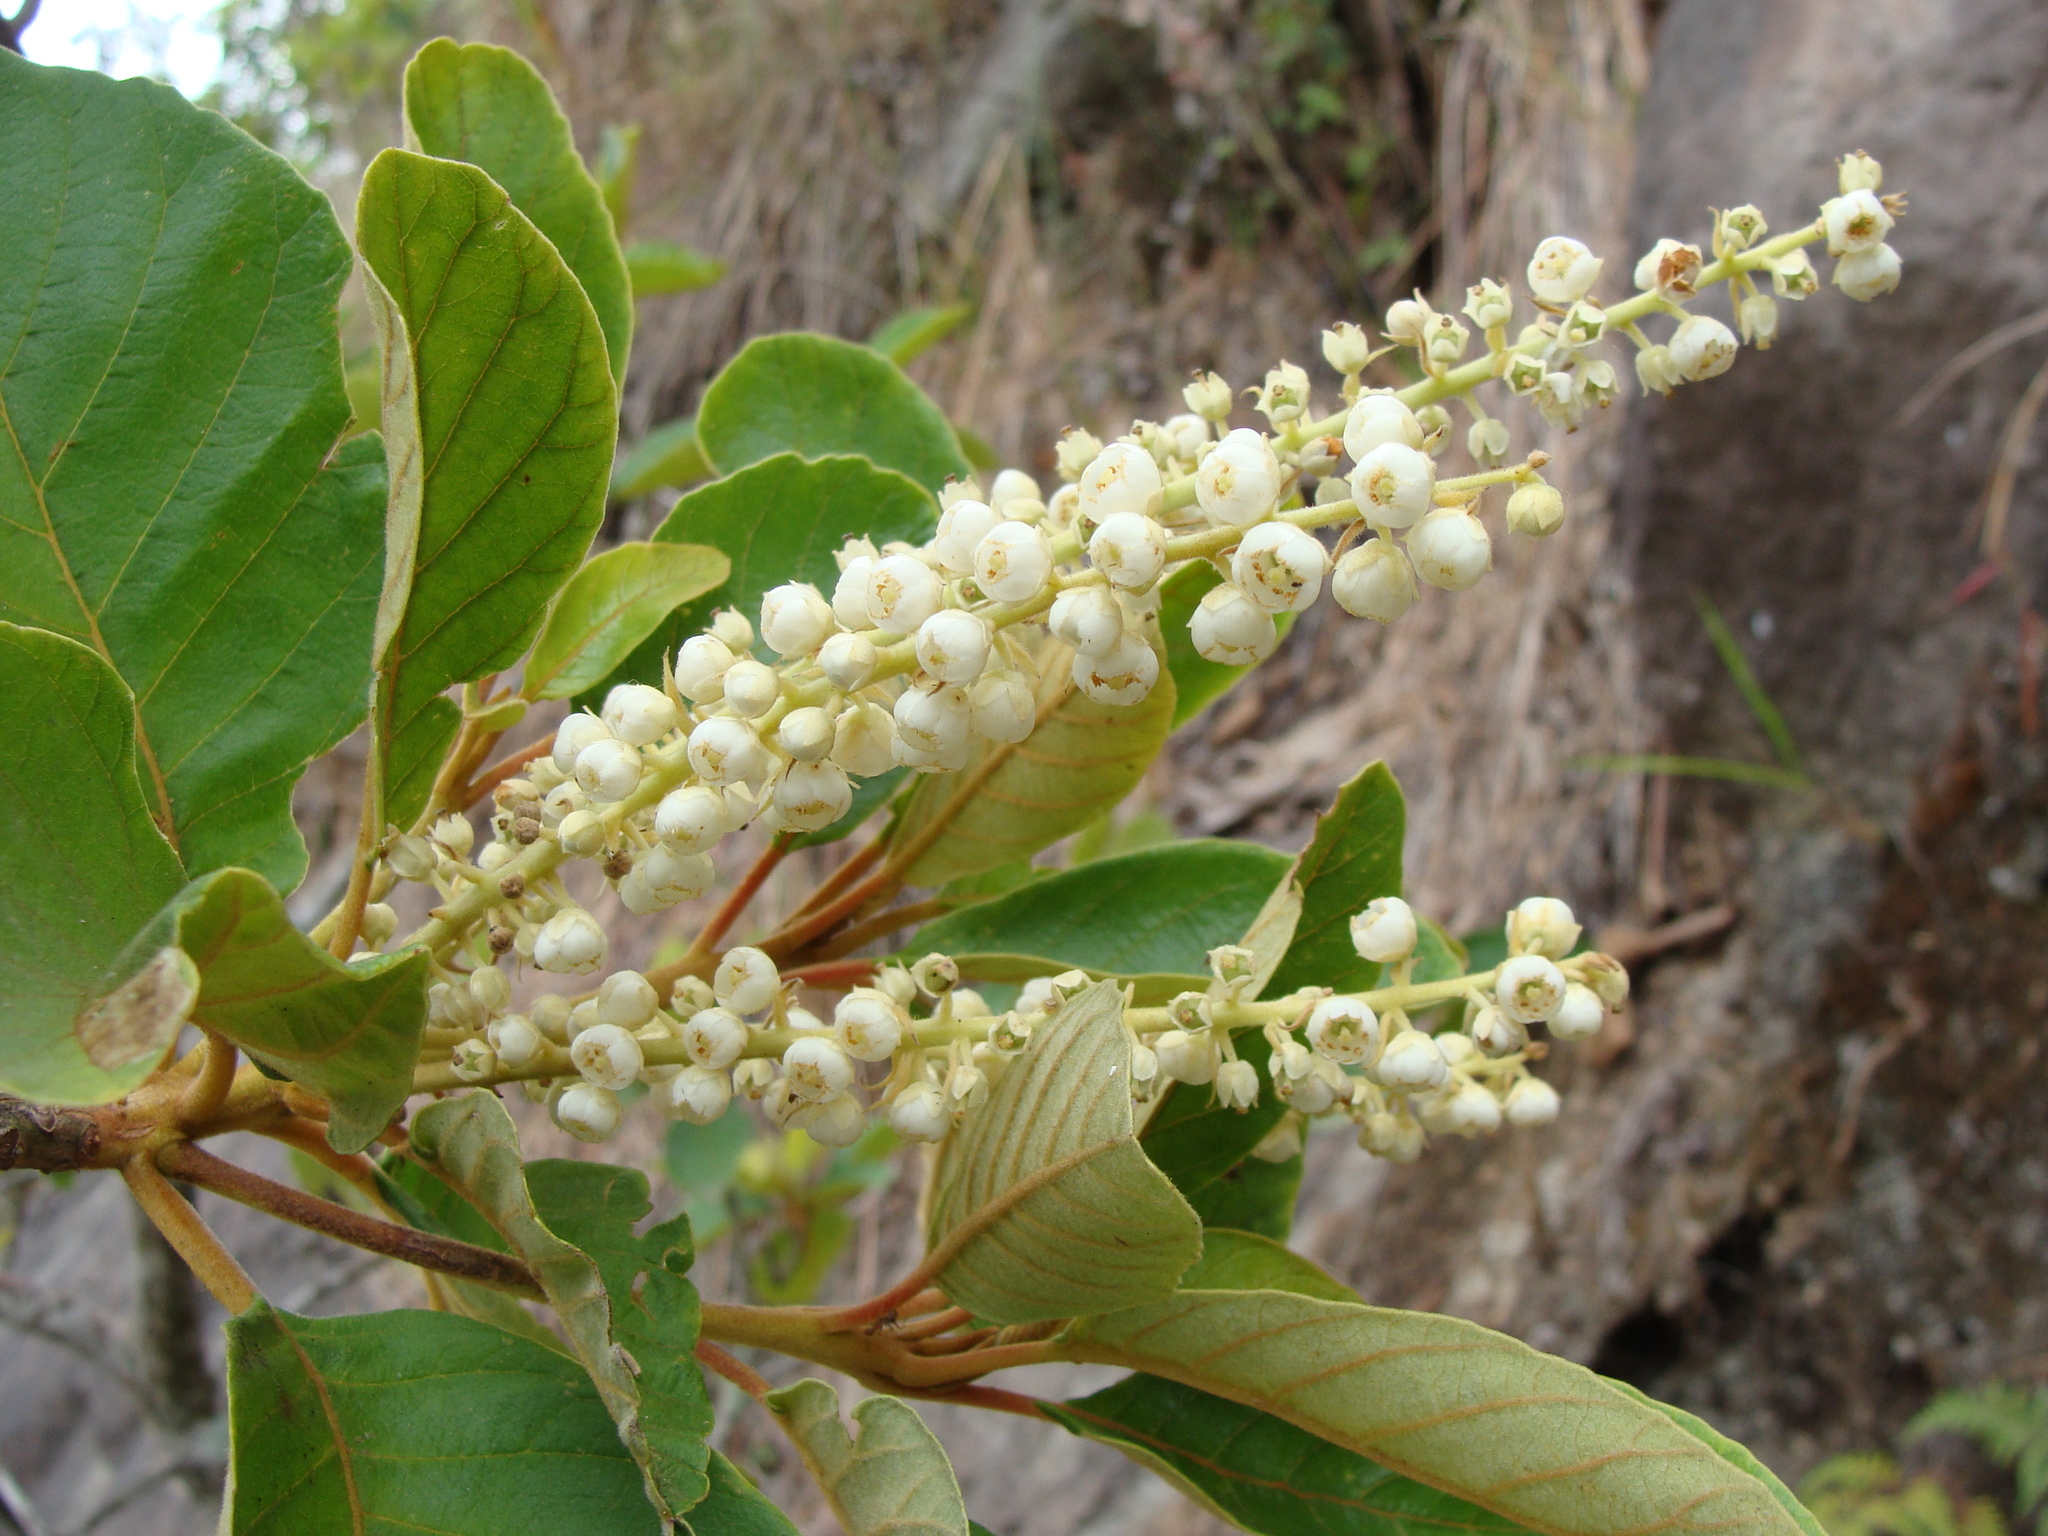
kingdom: Plantae
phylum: Tracheophyta
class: Magnoliopsida
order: Ericales
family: Clethraceae
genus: Clethra
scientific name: Clethra mexicana
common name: Nance macho
